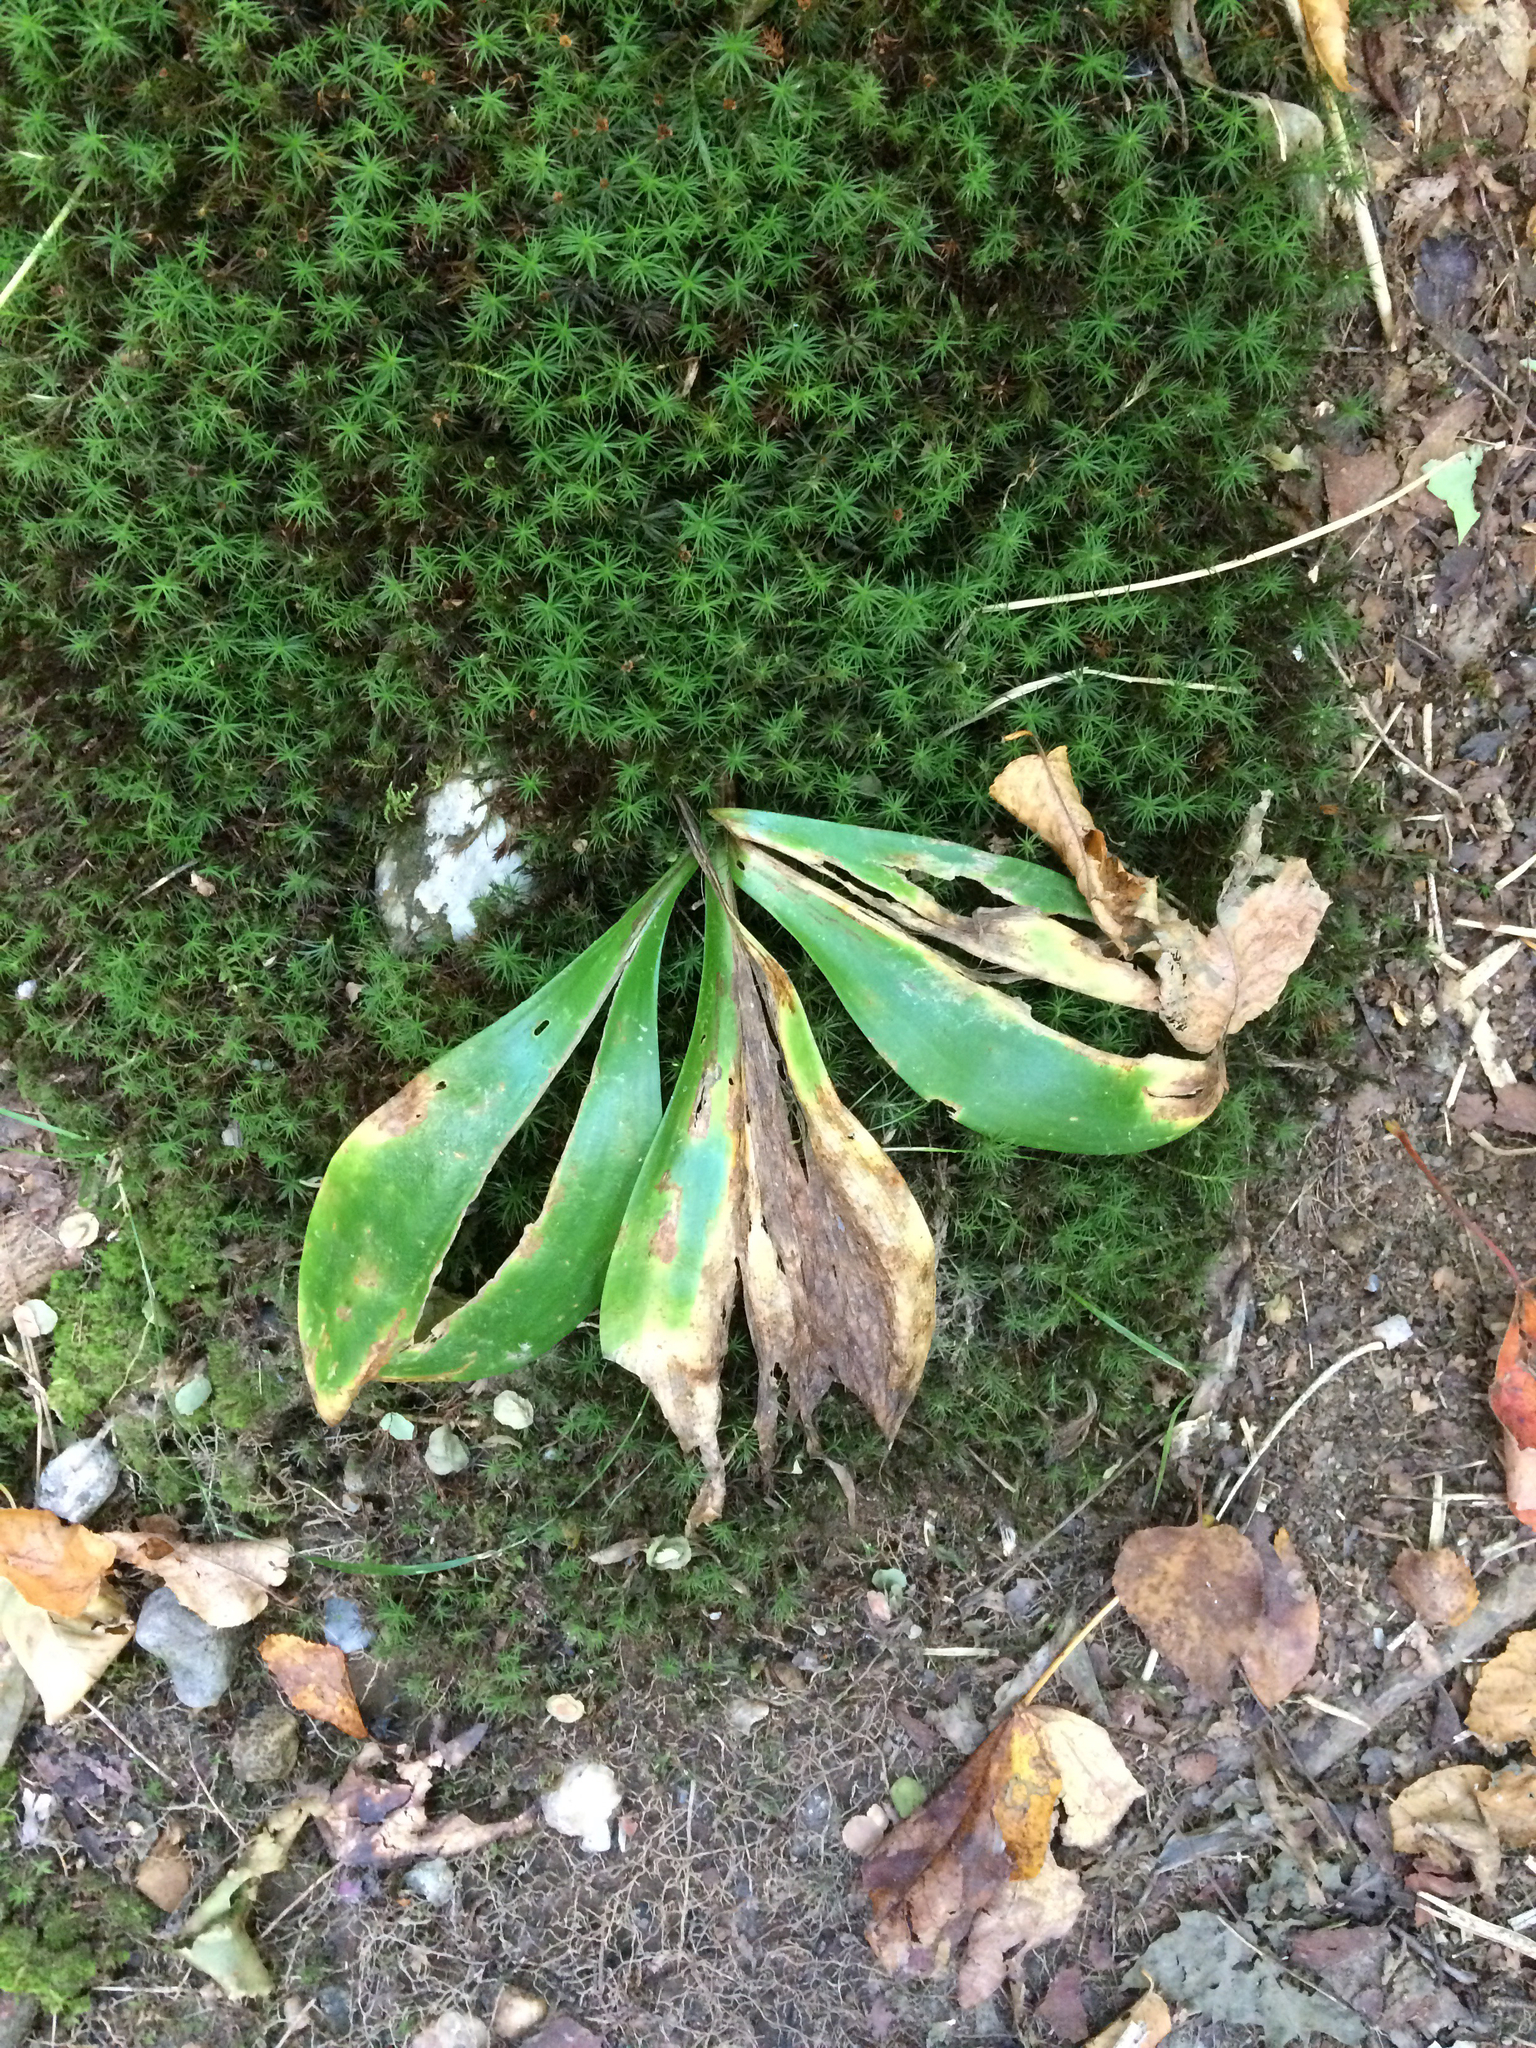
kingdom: Plantae
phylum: Tracheophyta
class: Liliopsida
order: Liliales
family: Liliaceae
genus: Clintonia
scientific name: Clintonia borealis
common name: Yellow clintonia
